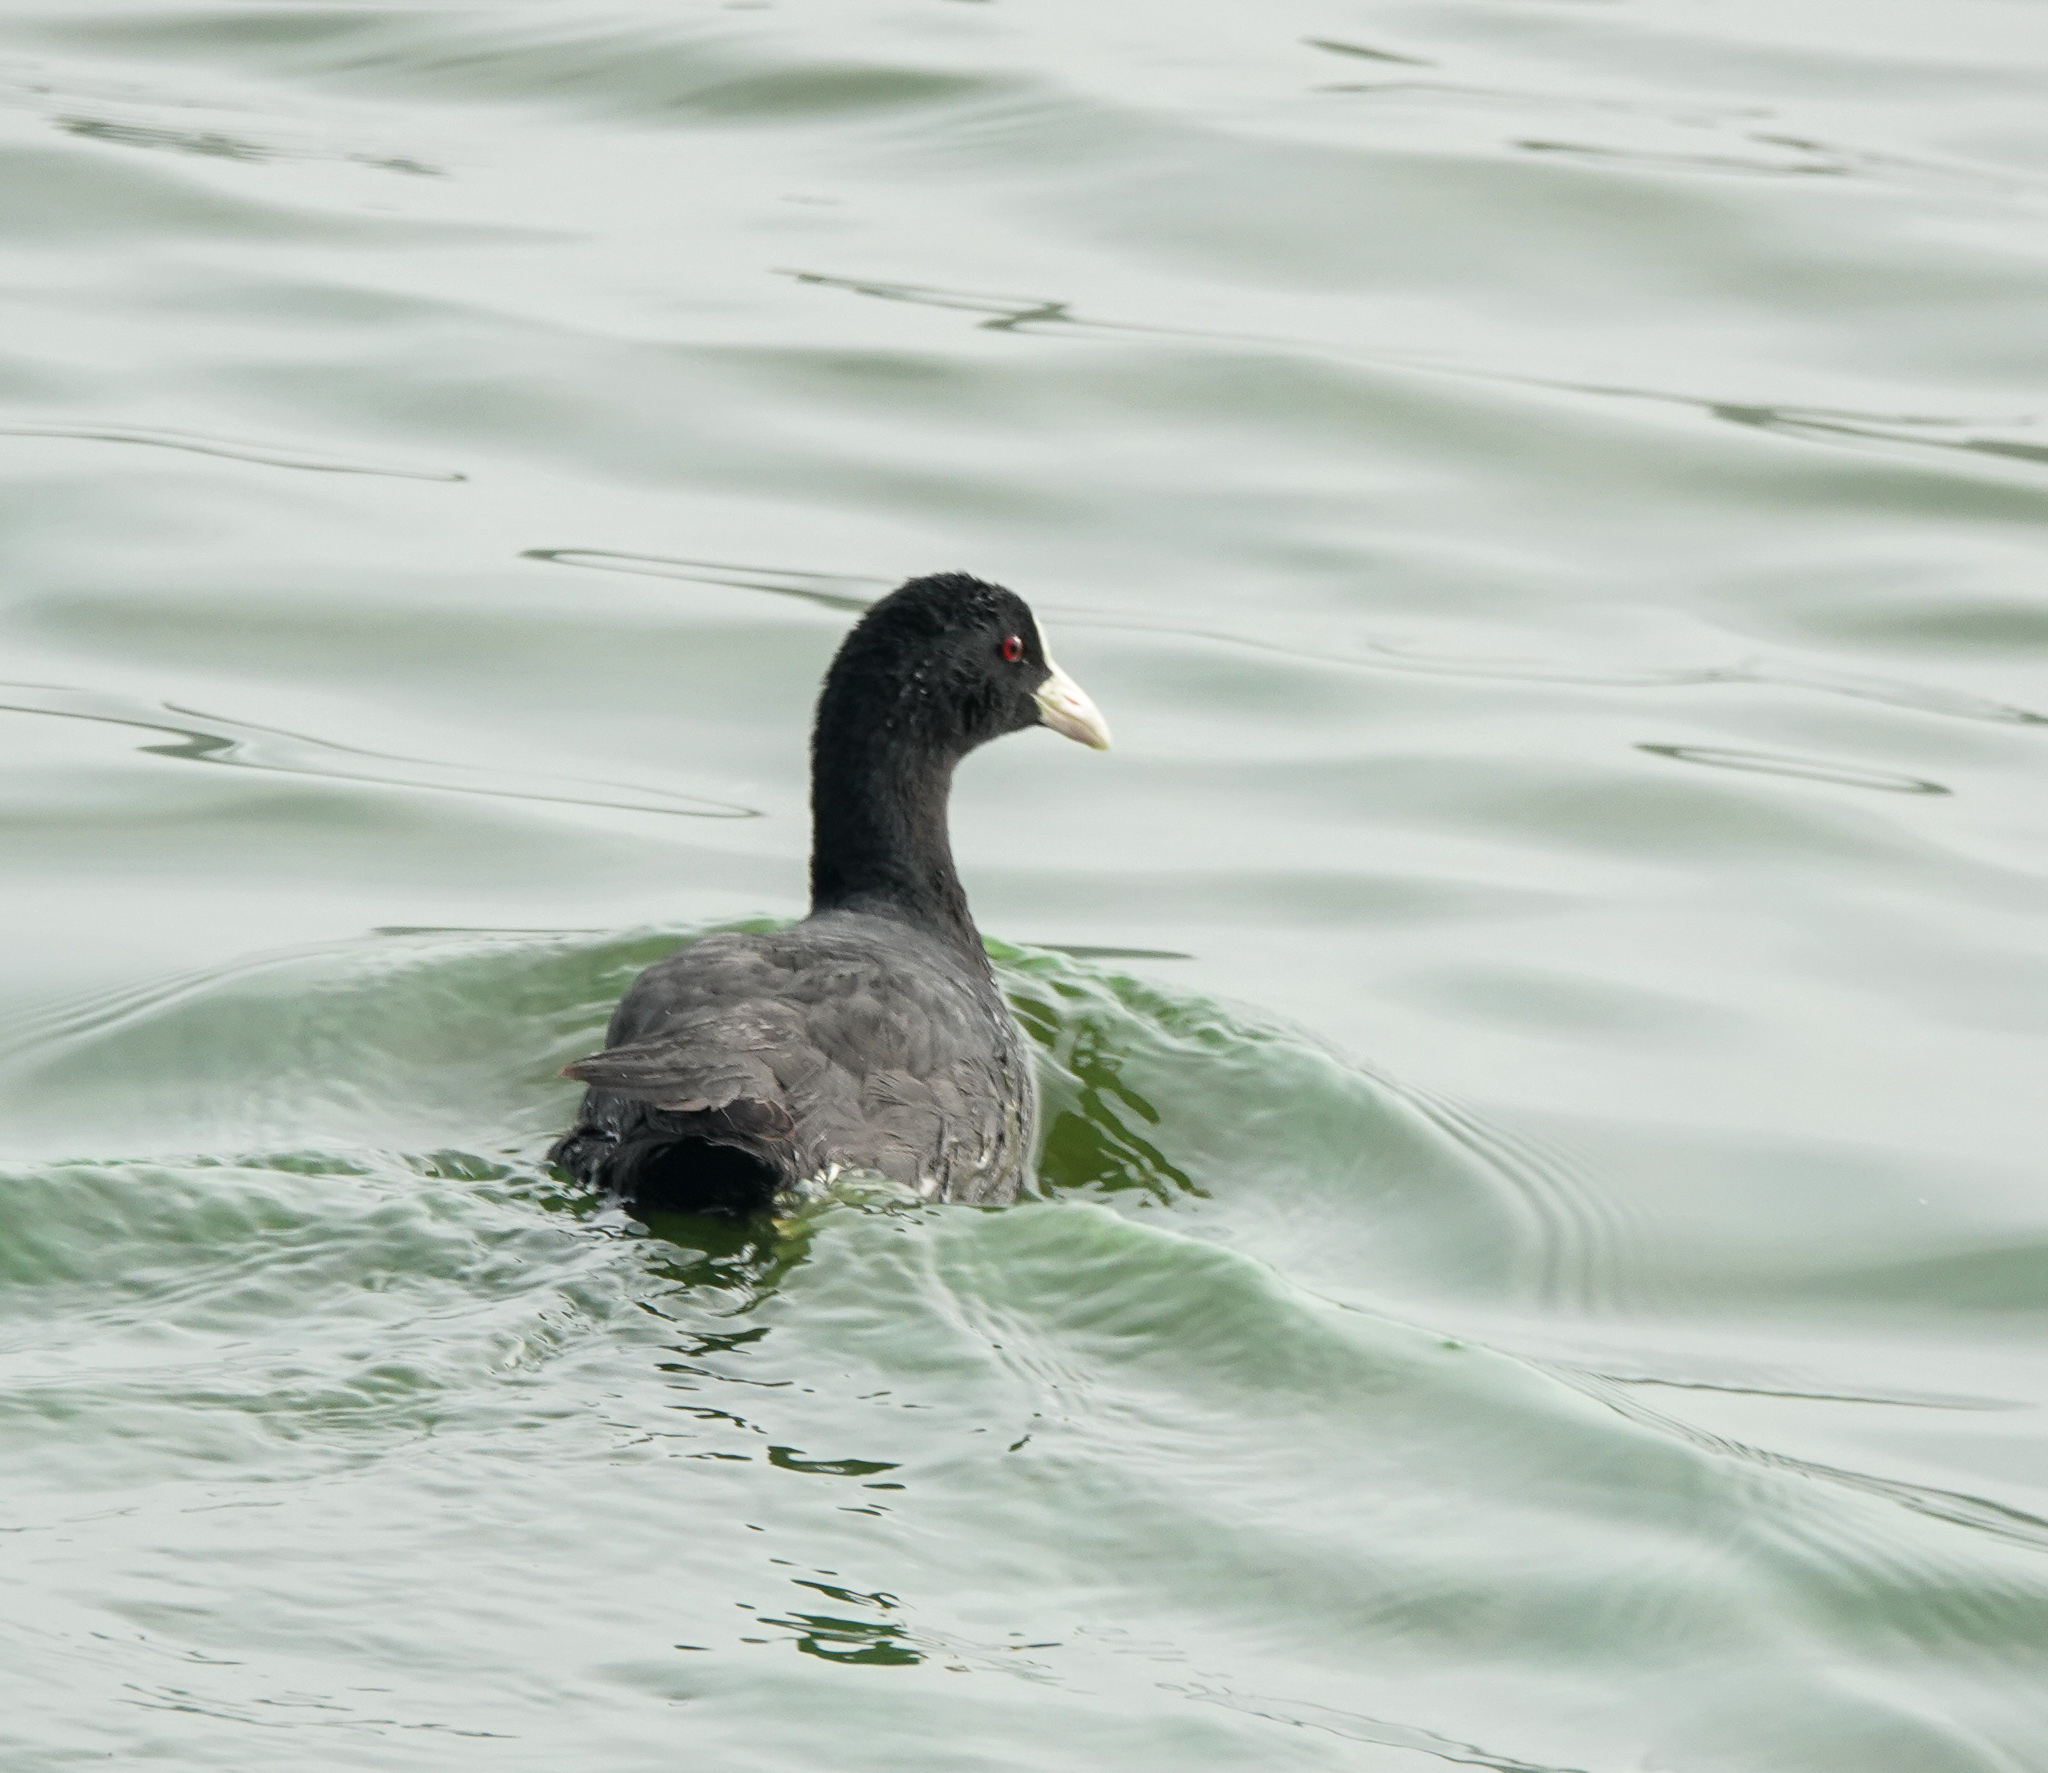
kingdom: Animalia
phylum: Chordata
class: Aves
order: Gruiformes
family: Rallidae
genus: Fulica
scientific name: Fulica atra
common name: Eurasian coot
